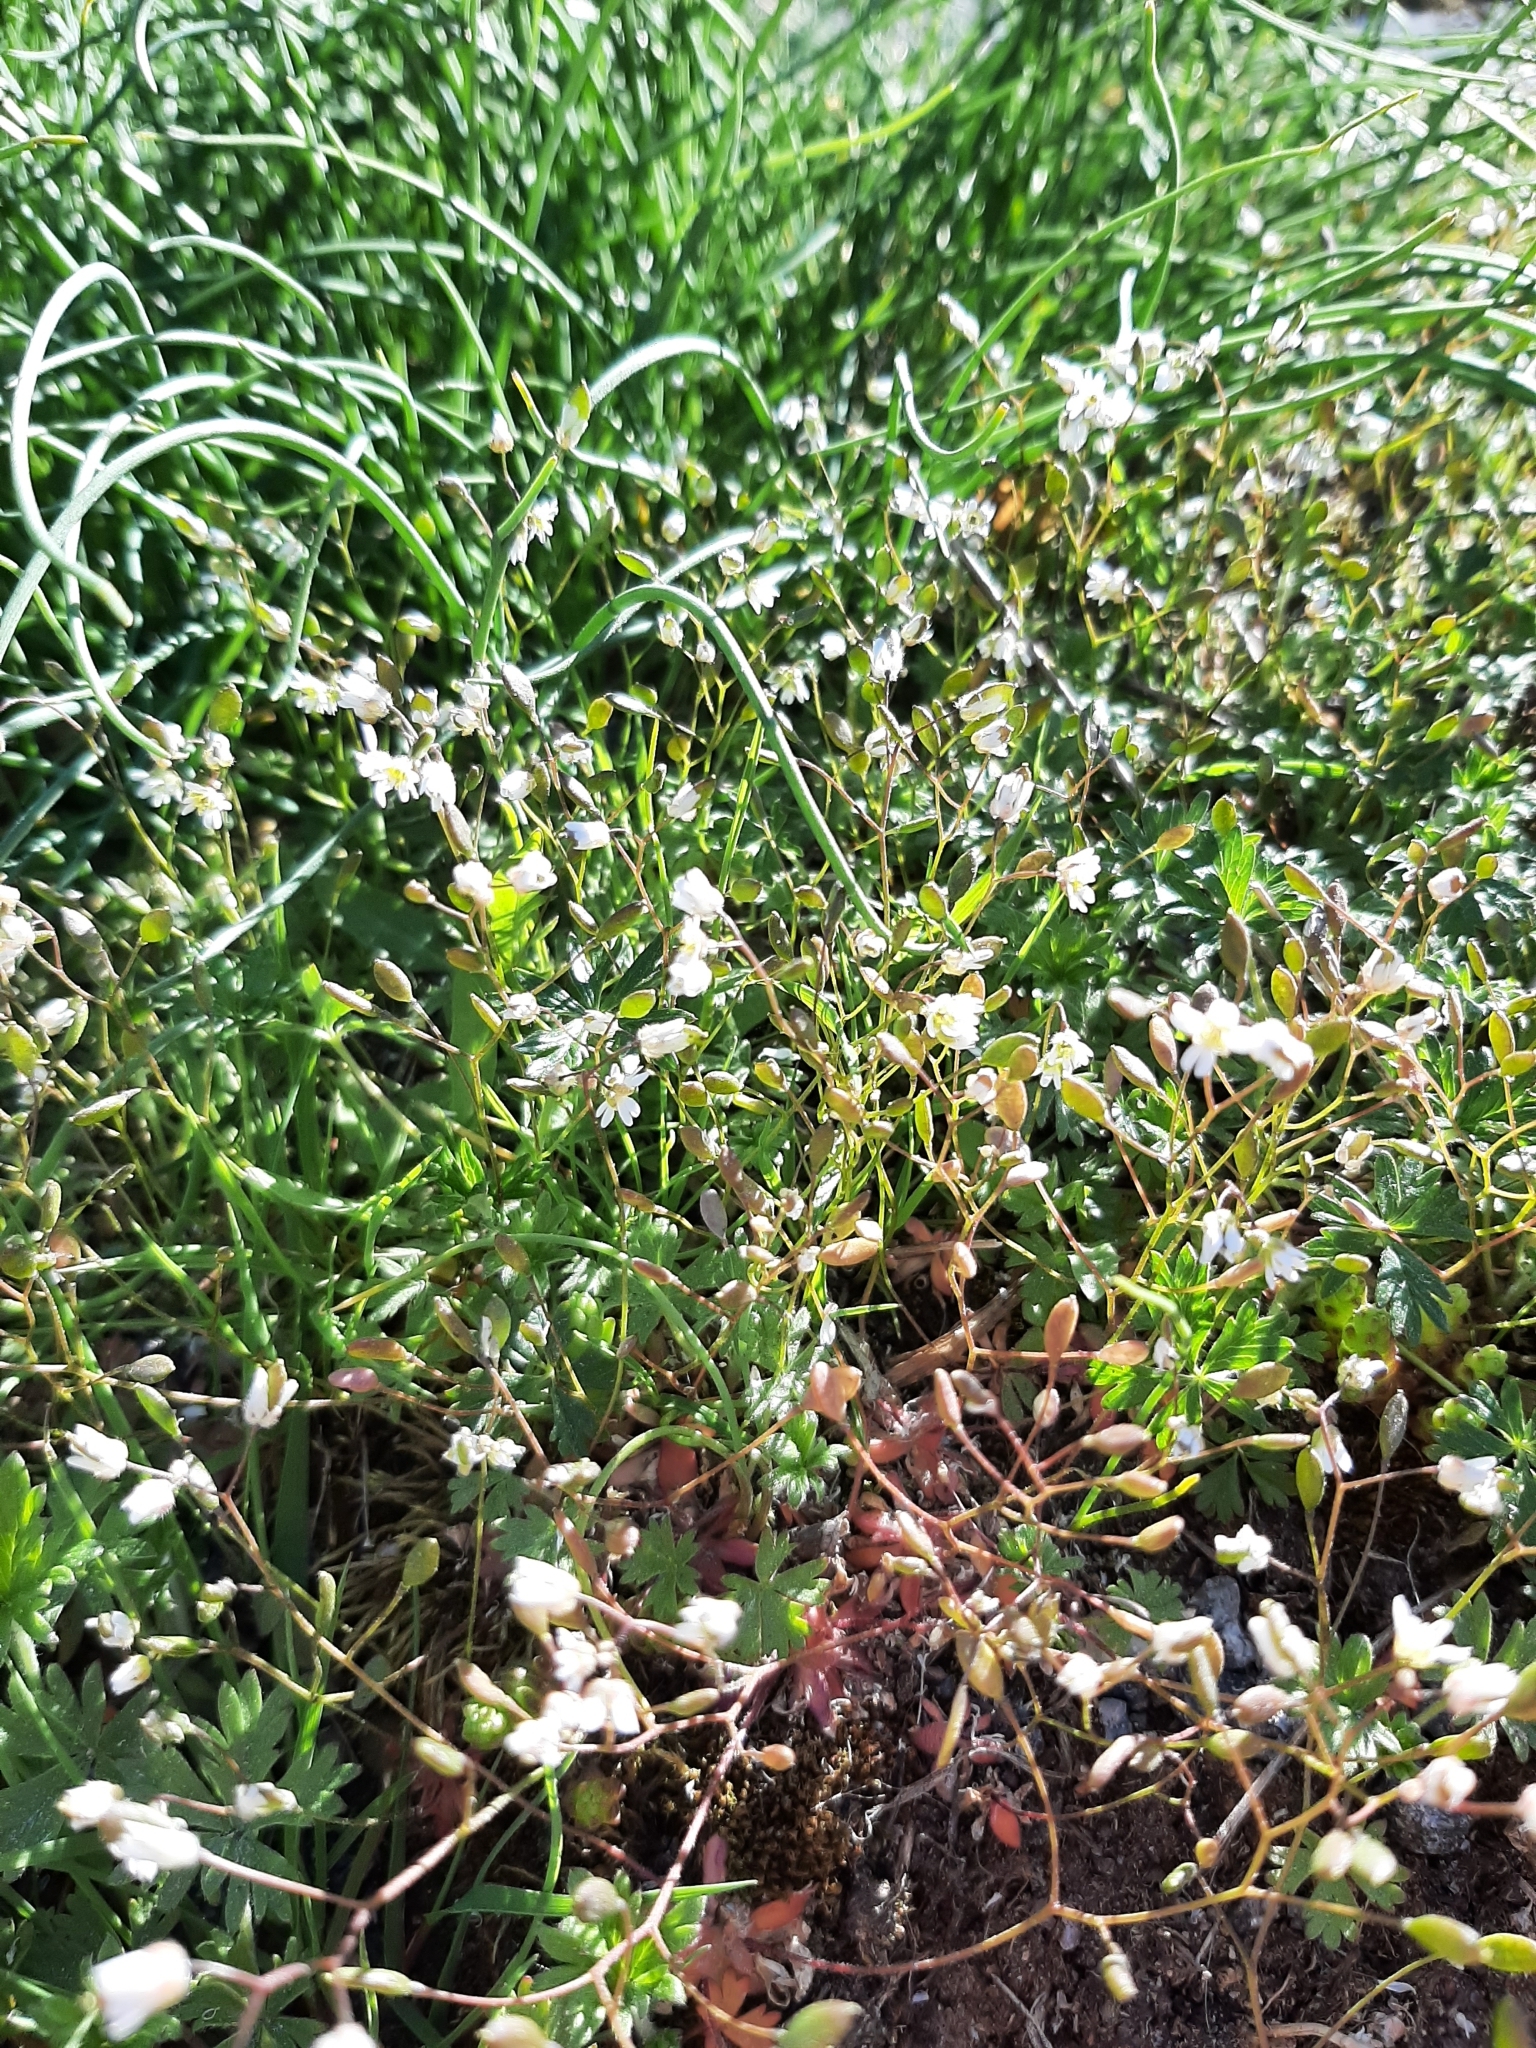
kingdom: Plantae
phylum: Tracheophyta
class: Magnoliopsida
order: Brassicales
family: Brassicaceae
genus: Draba
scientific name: Draba verna
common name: Spring draba
